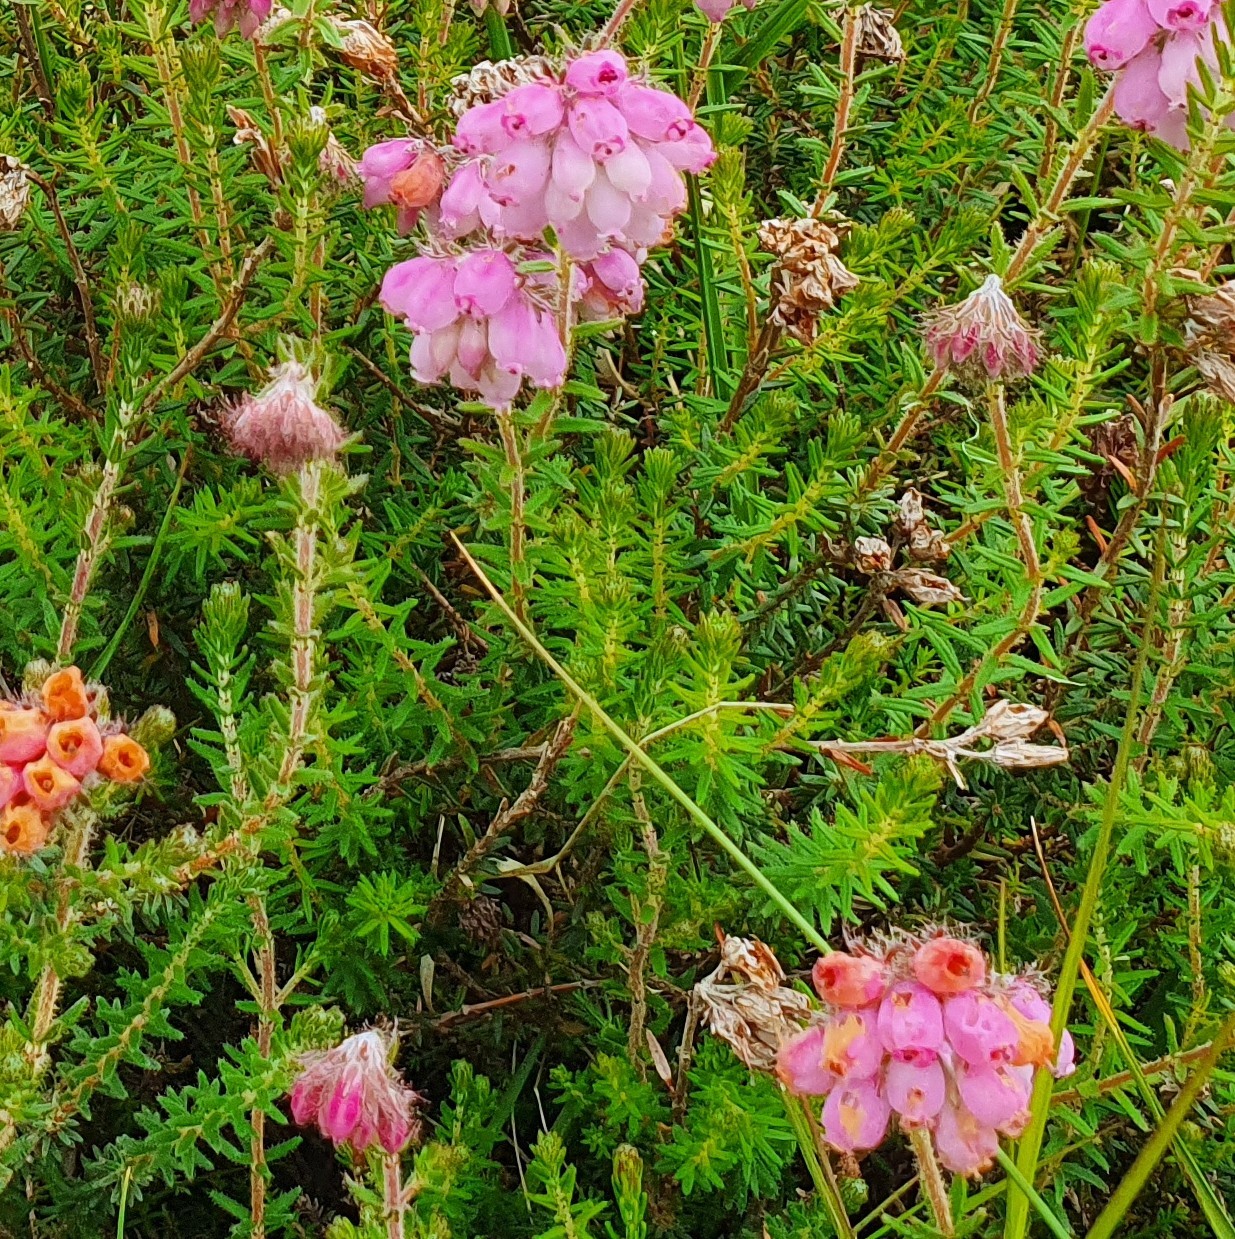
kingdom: Plantae
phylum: Tracheophyta
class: Magnoliopsida
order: Ericales
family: Ericaceae
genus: Erica
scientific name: Erica tetralix
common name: Cross-leaved heath
